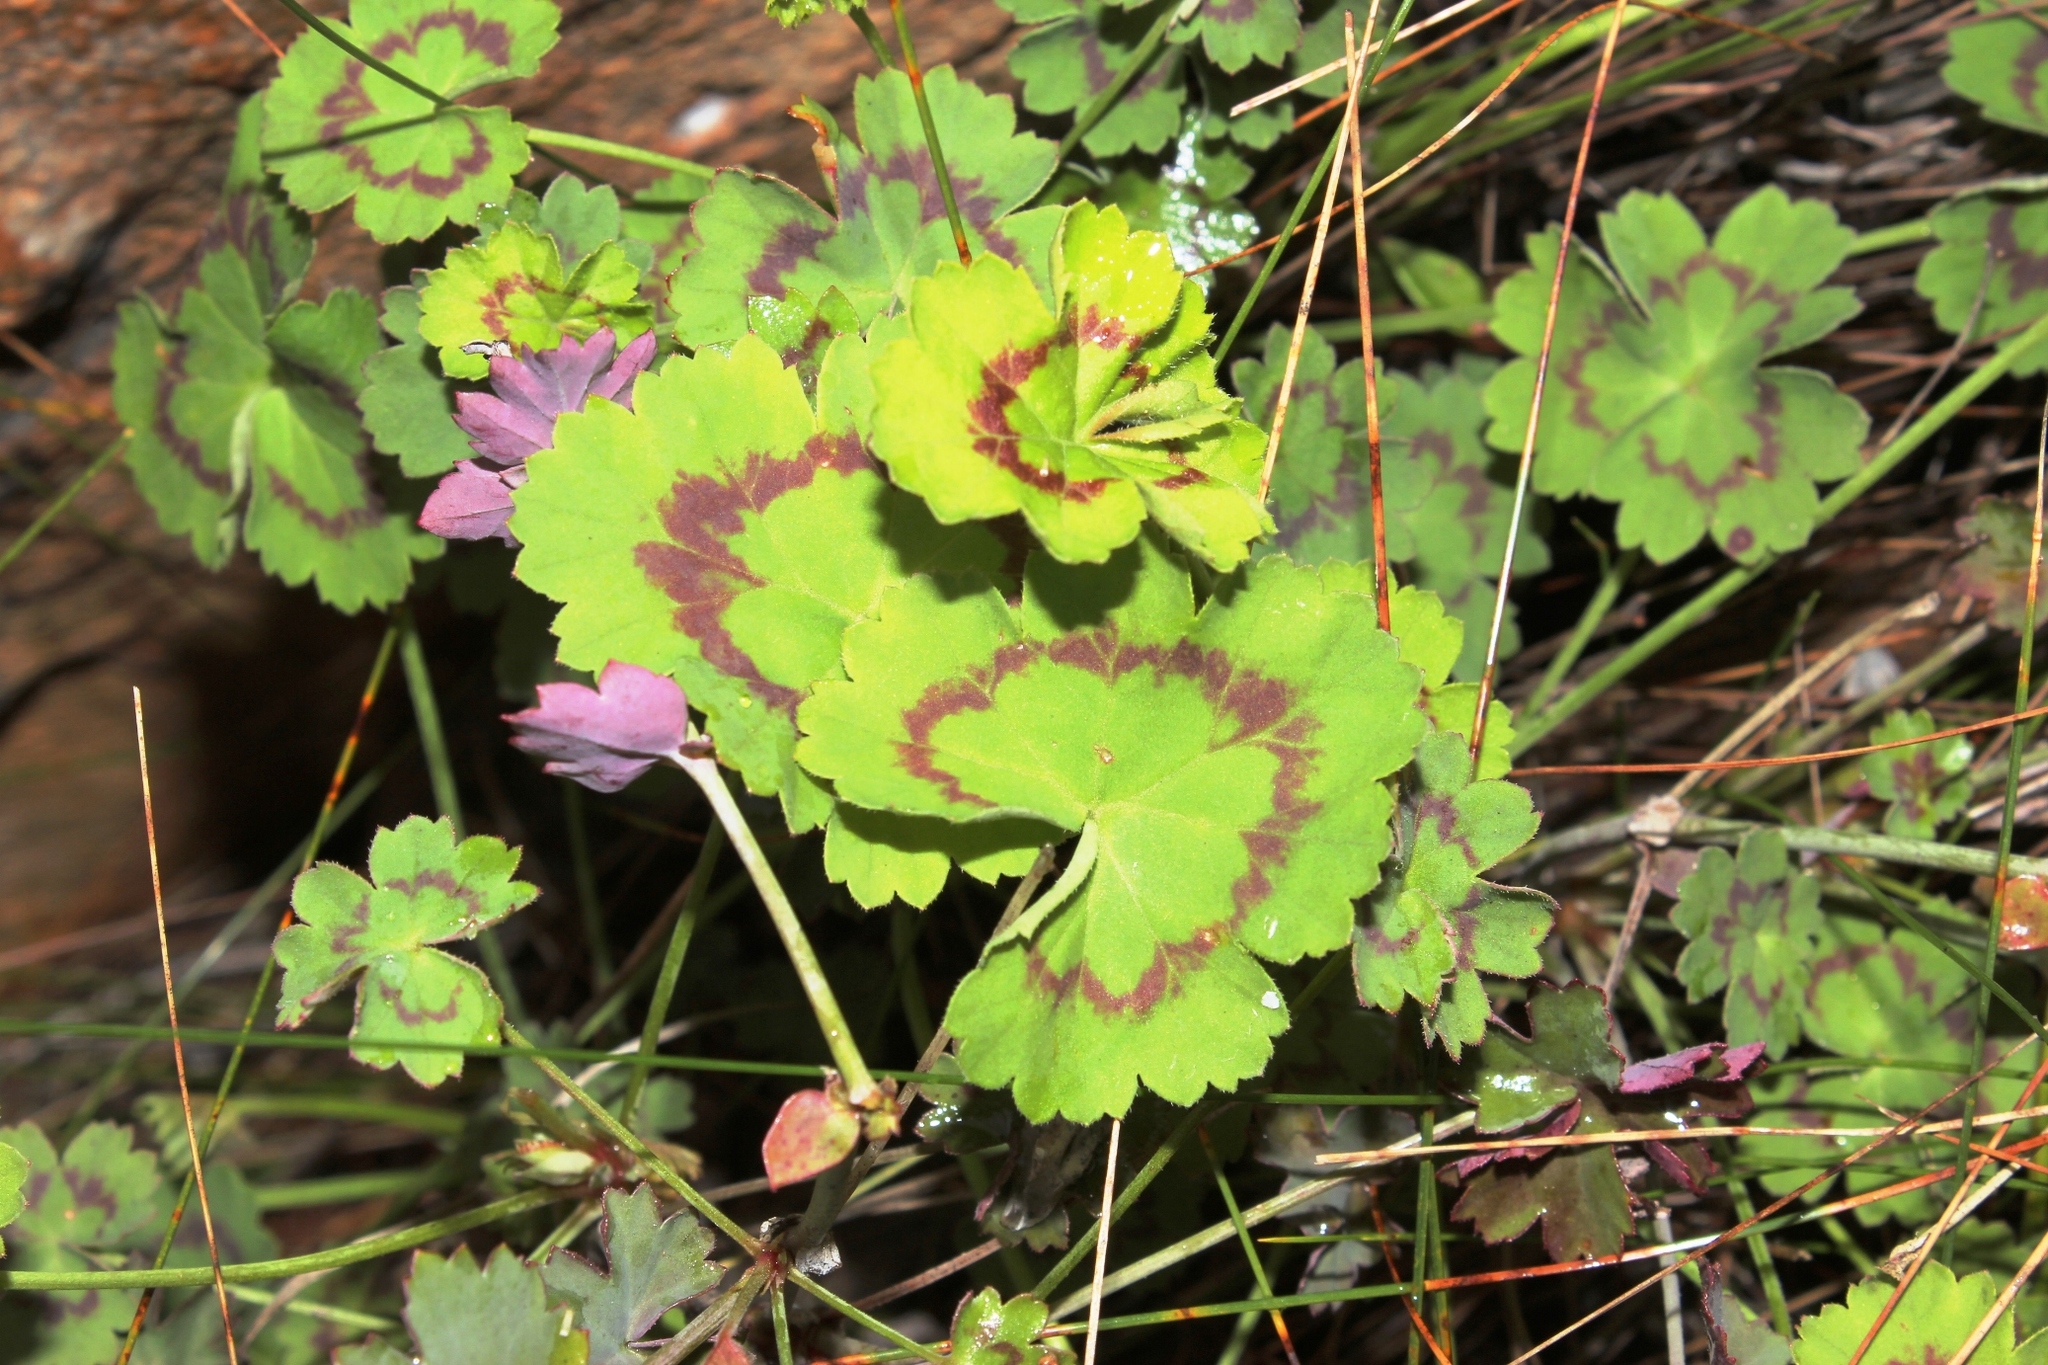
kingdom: Plantae
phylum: Tracheophyta
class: Magnoliopsida
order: Geraniales
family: Geraniaceae
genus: Pelargonium
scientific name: Pelargonium elongatum
